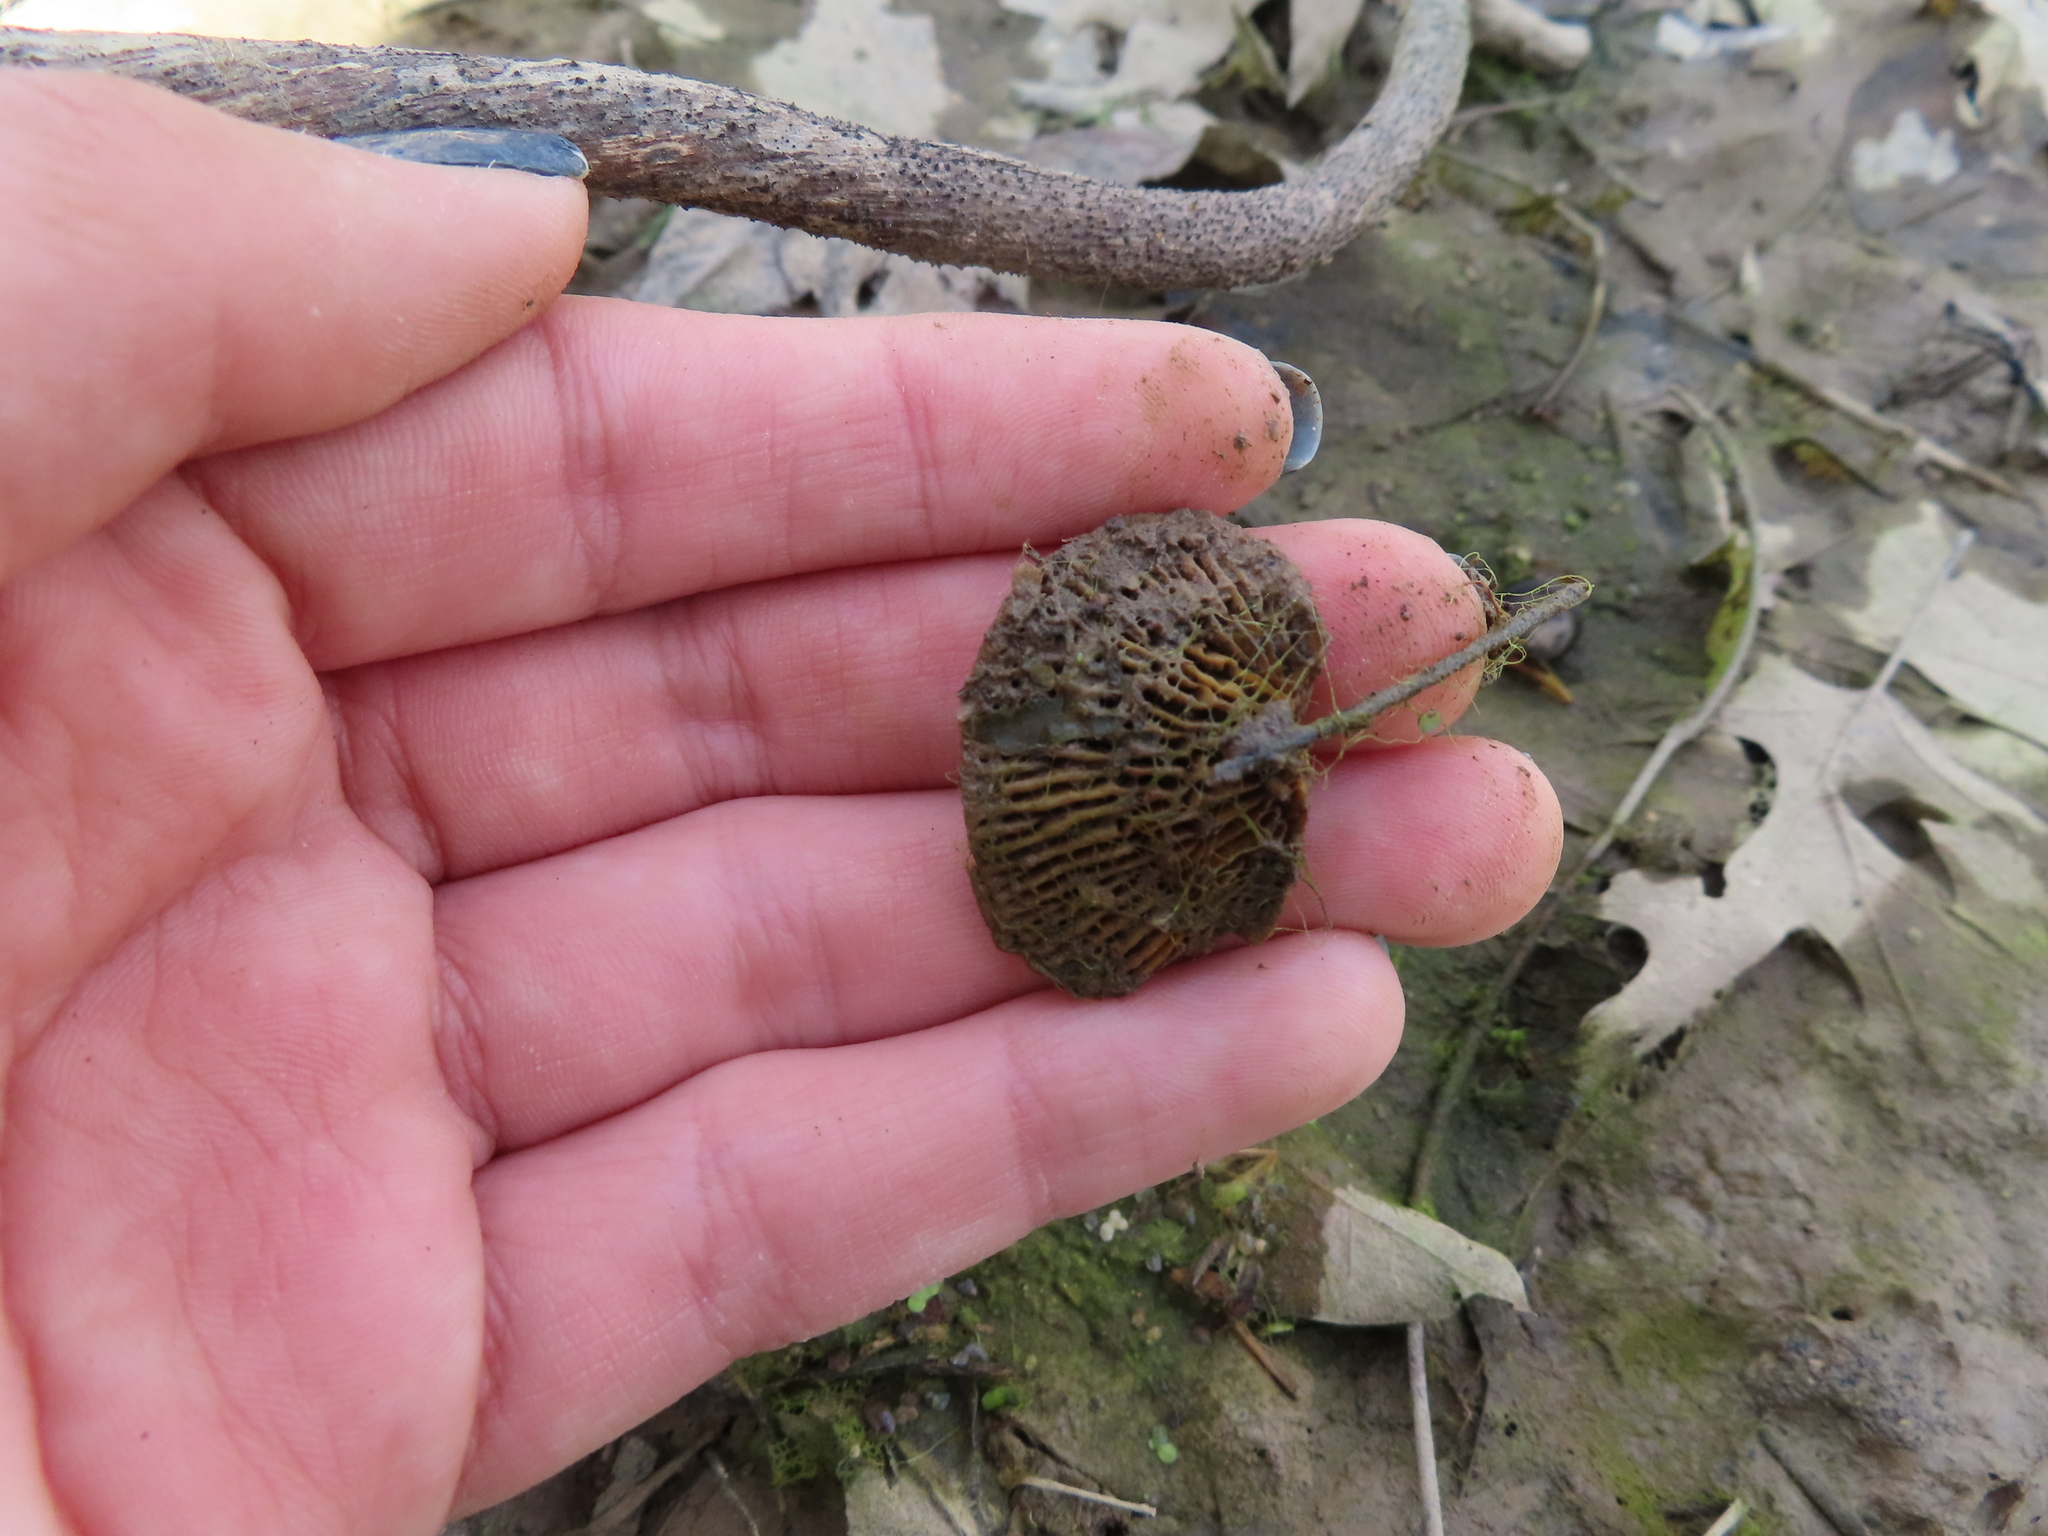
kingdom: Fungi
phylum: Basidiomycota
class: Agaricomycetes
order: Polyporales
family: Polyporaceae
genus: Lenzites
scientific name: Lenzites betulinus
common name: Birch mazegill
